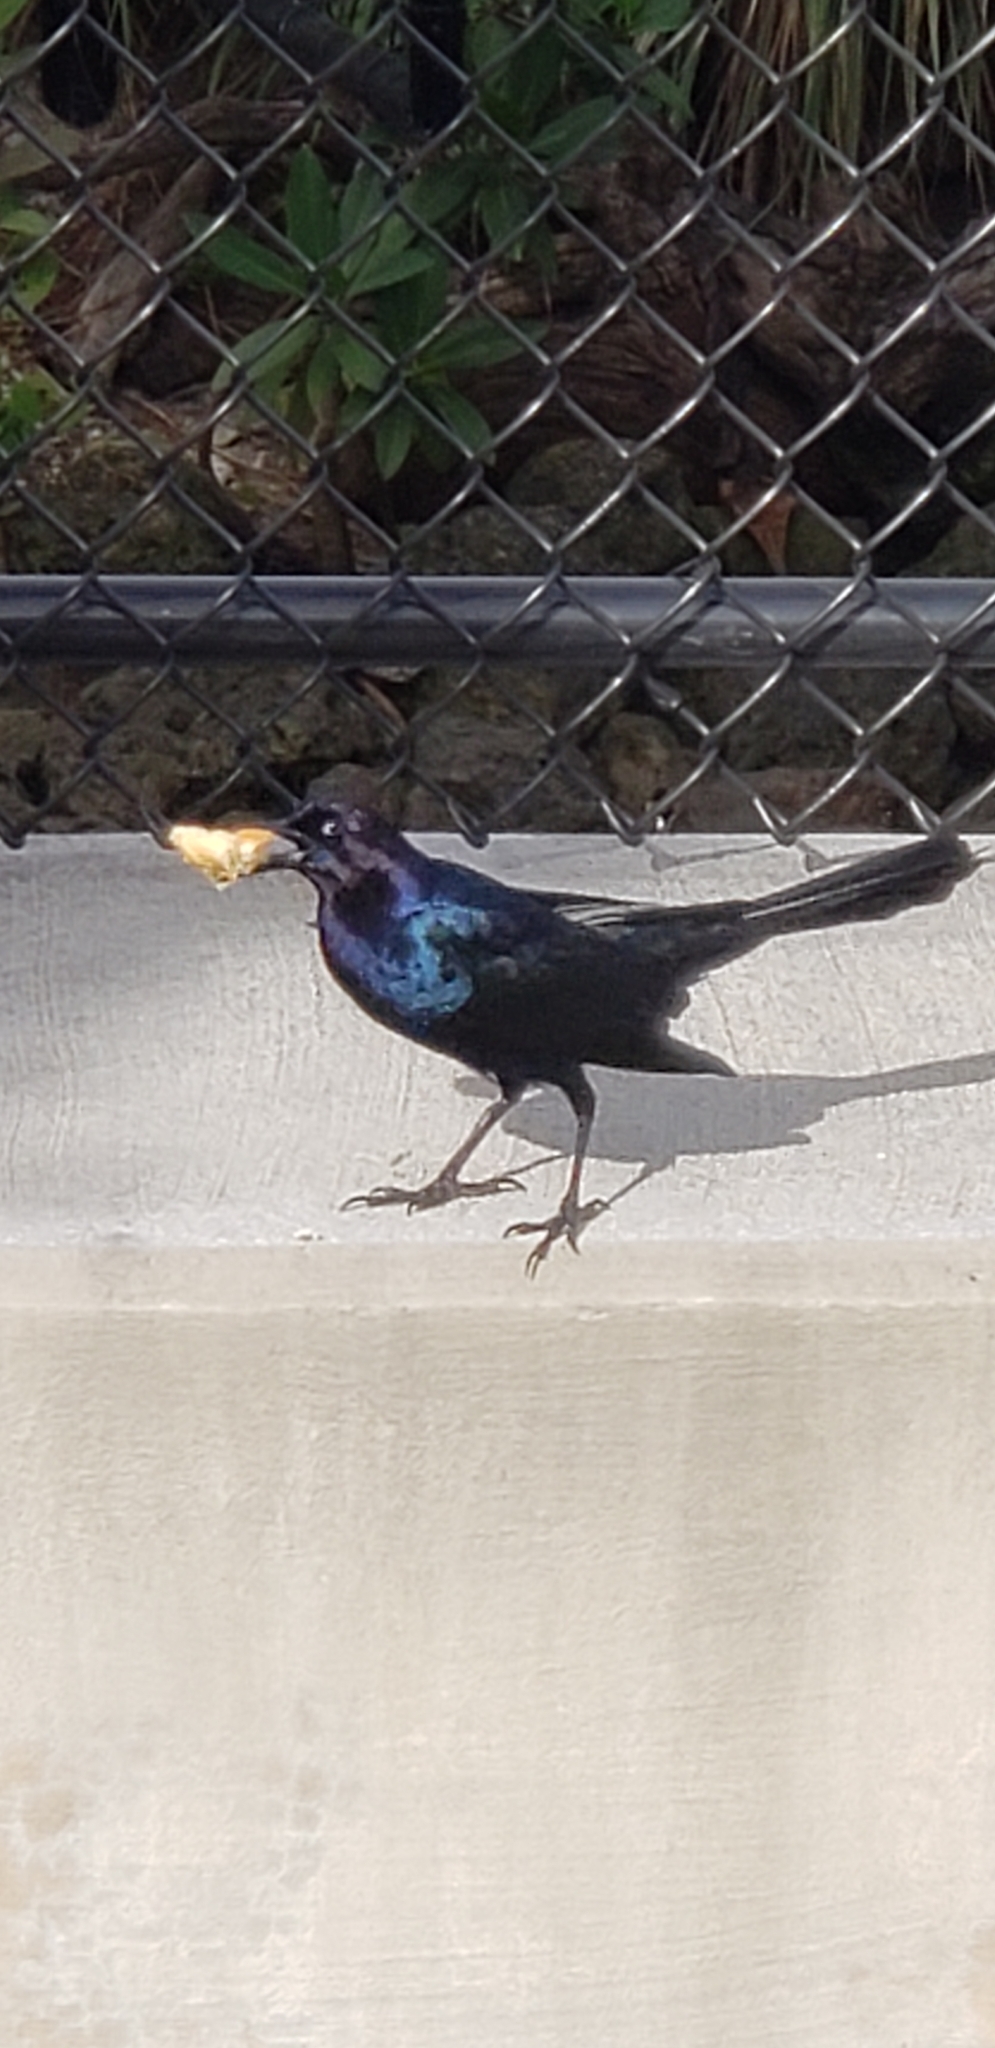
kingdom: Animalia
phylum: Chordata
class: Aves
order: Passeriformes
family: Icteridae
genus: Quiscalus
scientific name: Quiscalus major
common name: Boat-tailed grackle
